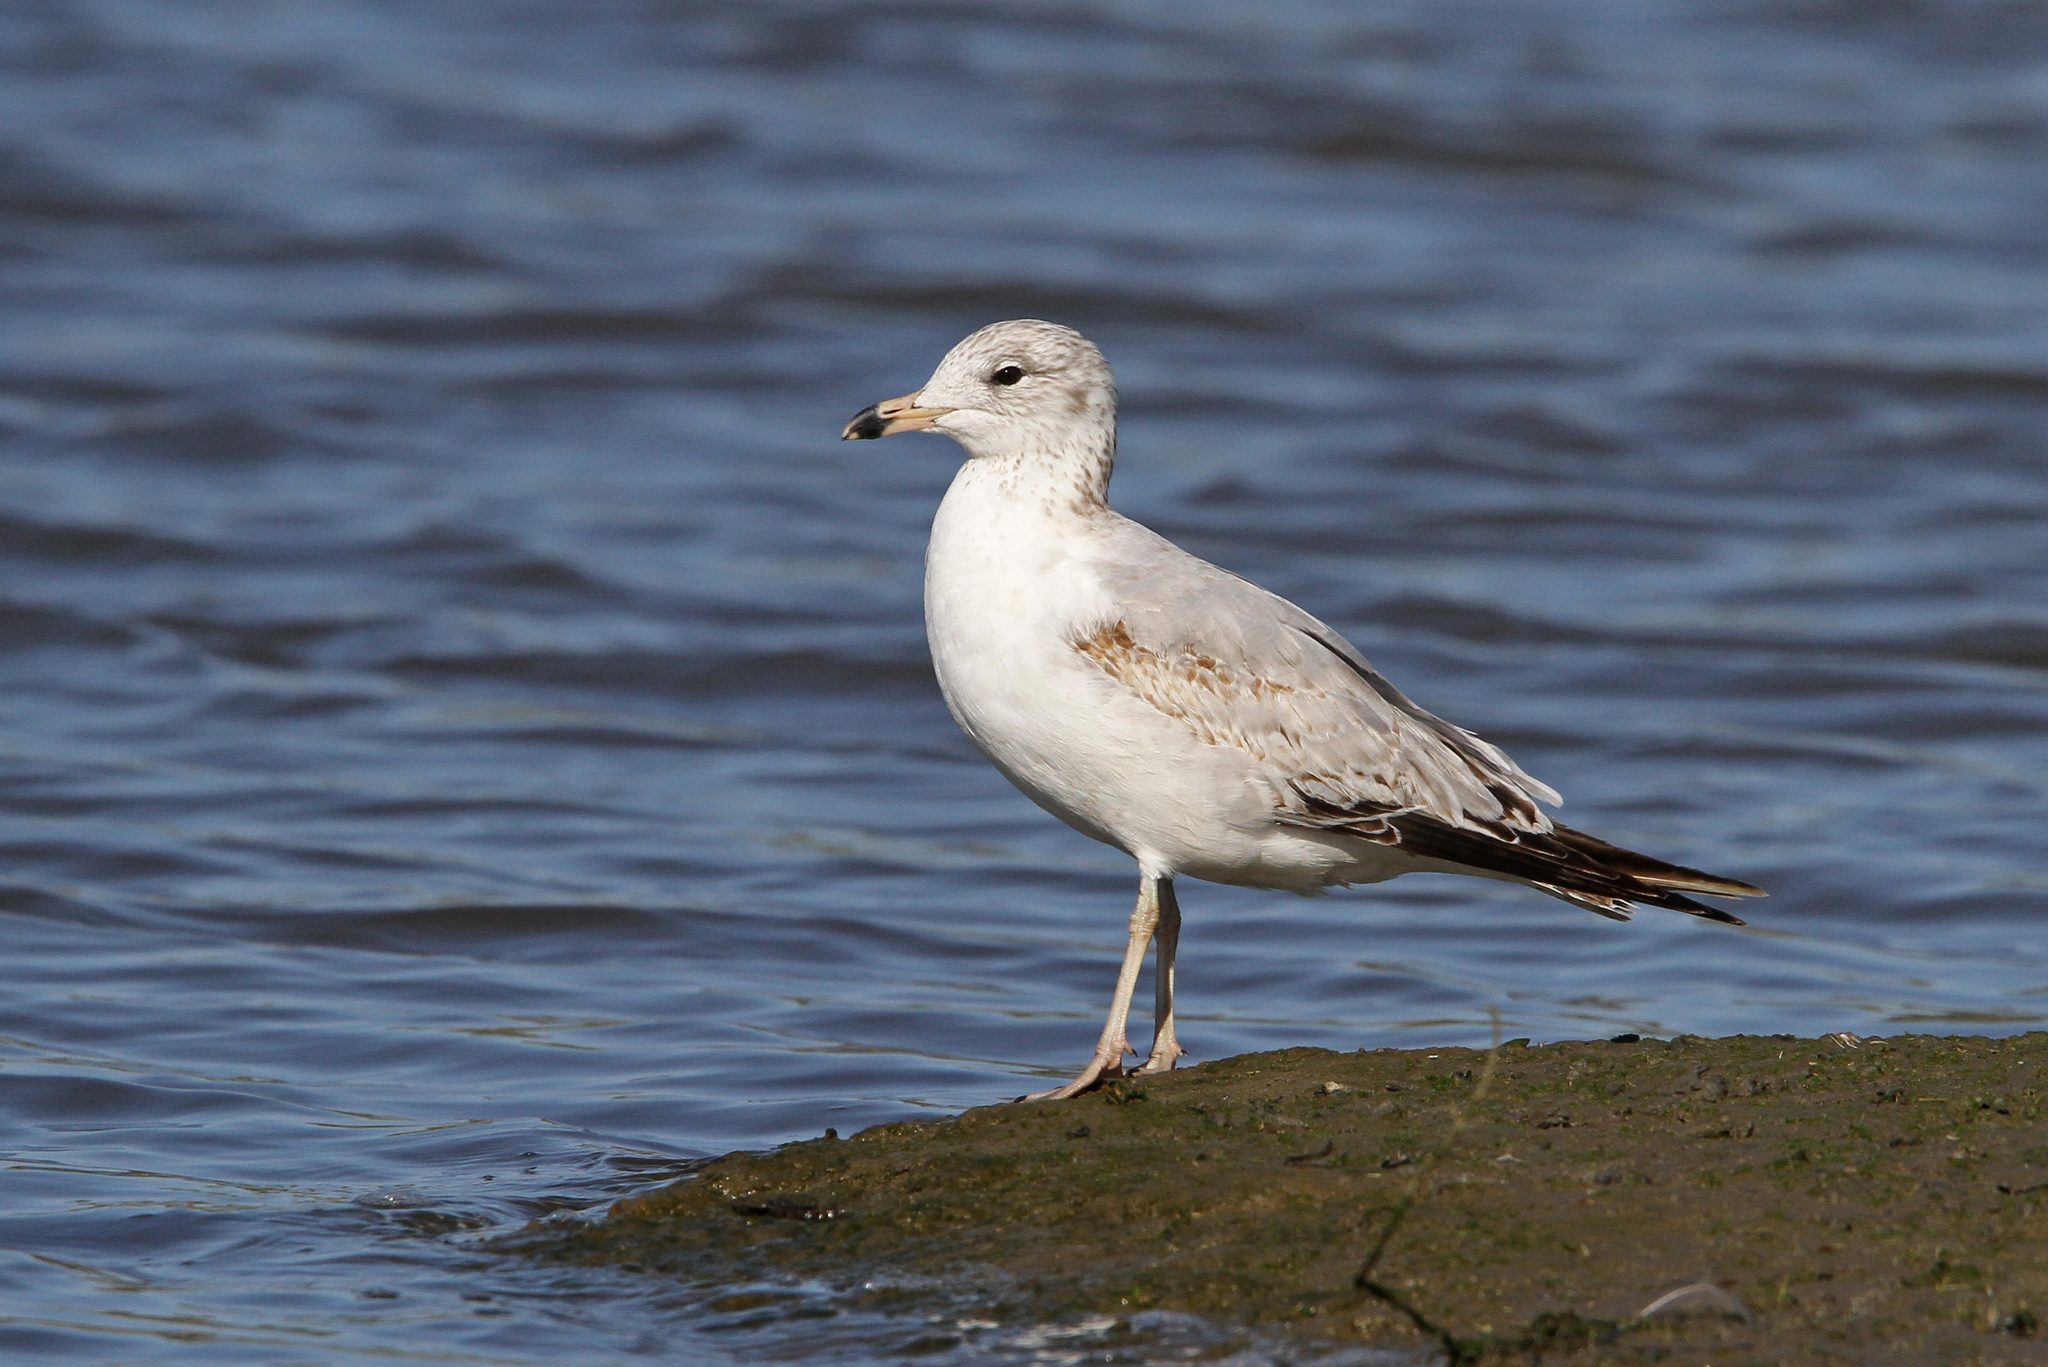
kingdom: Animalia
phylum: Chordata
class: Aves
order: Charadriiformes
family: Laridae
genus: Larus
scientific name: Larus delawarensis
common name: Ring-billed gull
